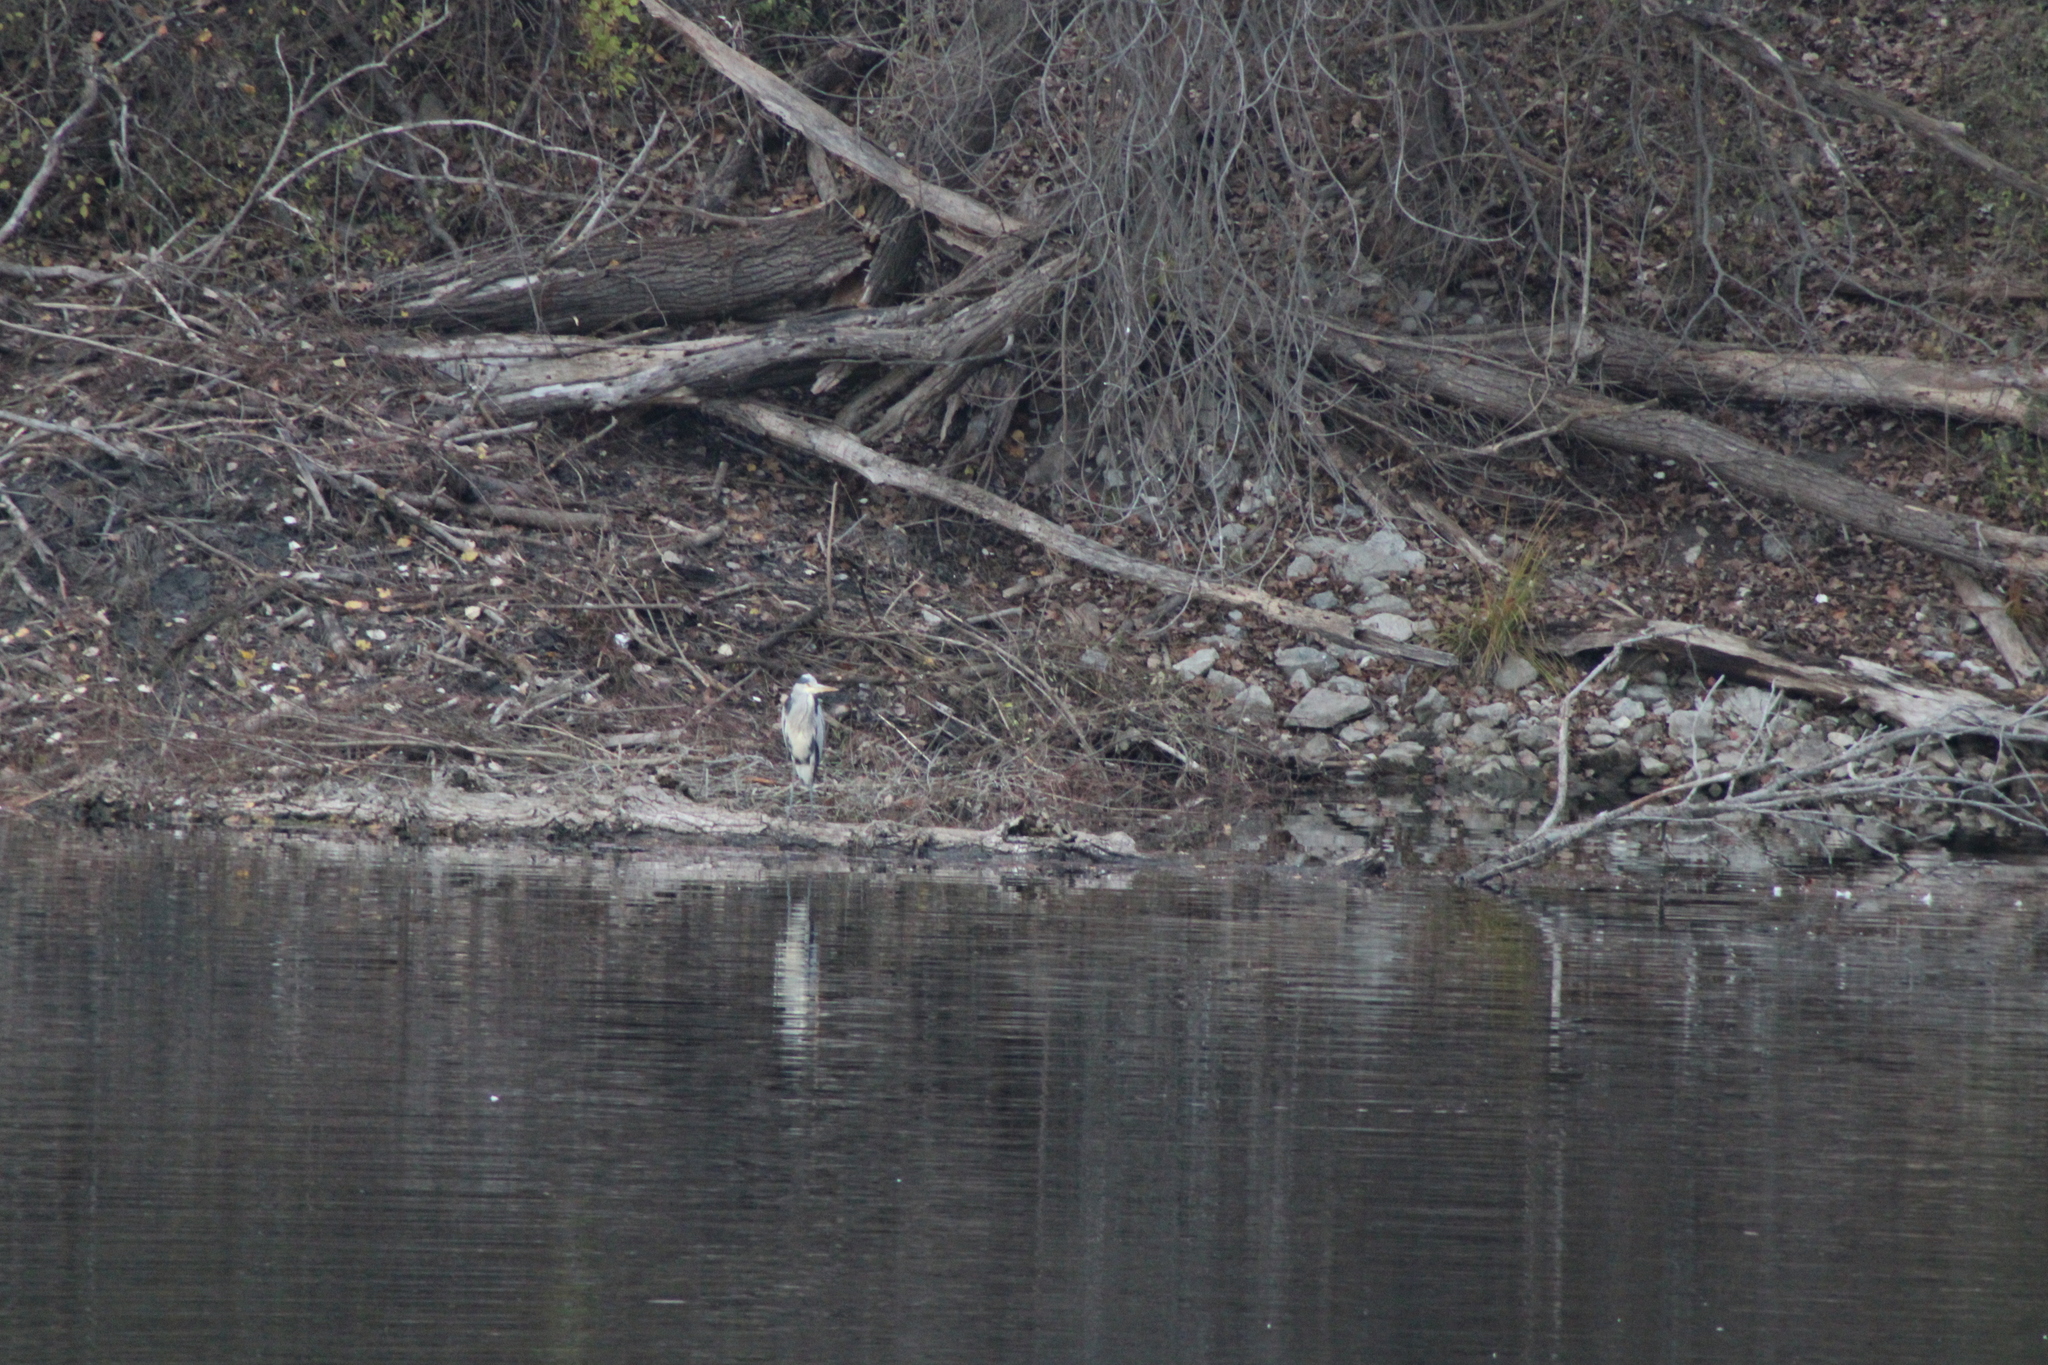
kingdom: Animalia
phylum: Chordata
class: Aves
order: Pelecaniformes
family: Ardeidae
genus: Ardea
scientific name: Ardea cinerea
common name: Grey heron
